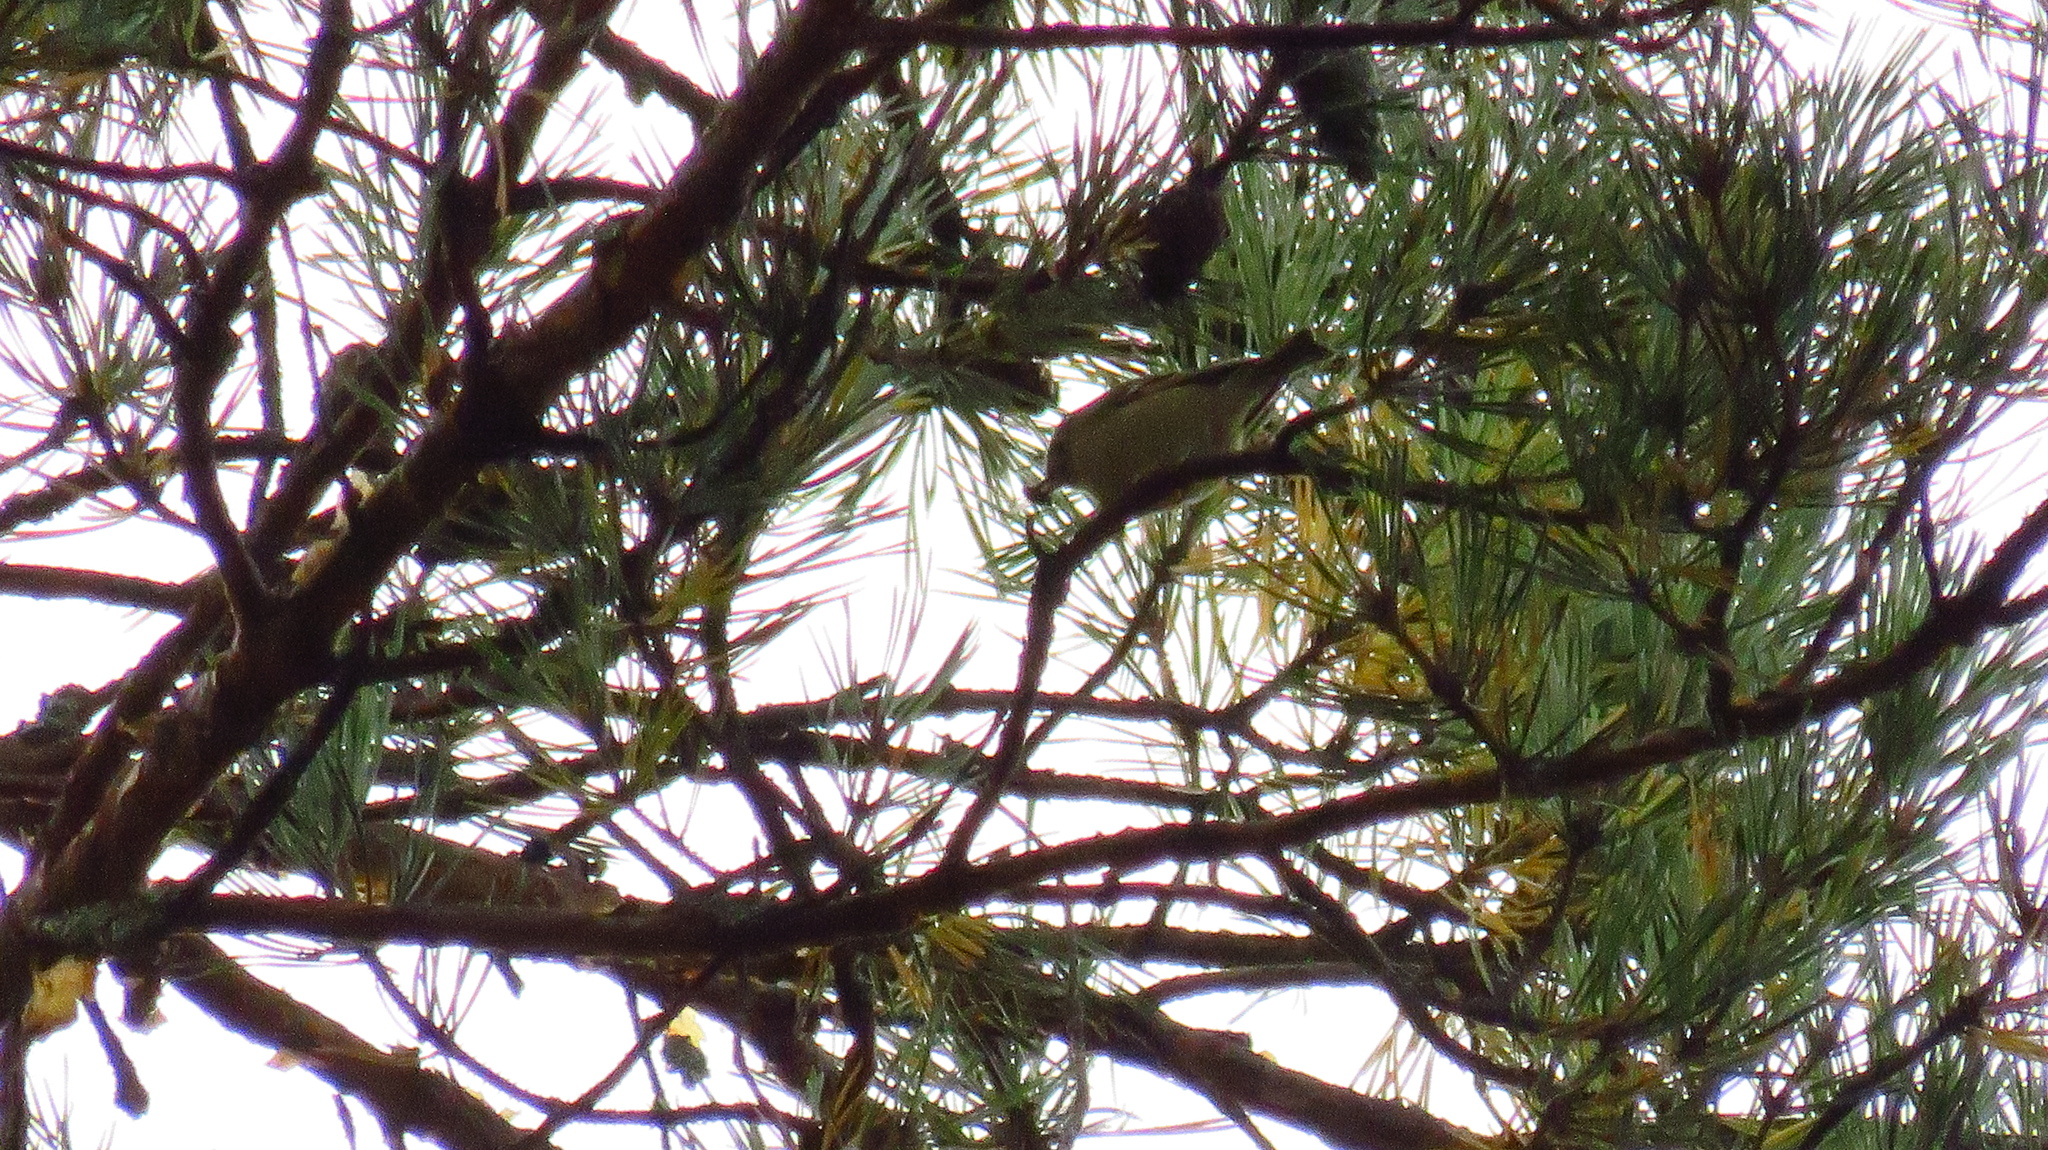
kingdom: Animalia
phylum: Chordata
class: Aves
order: Passeriformes
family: Regulidae
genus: Regulus
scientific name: Regulus regulus
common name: Goldcrest
